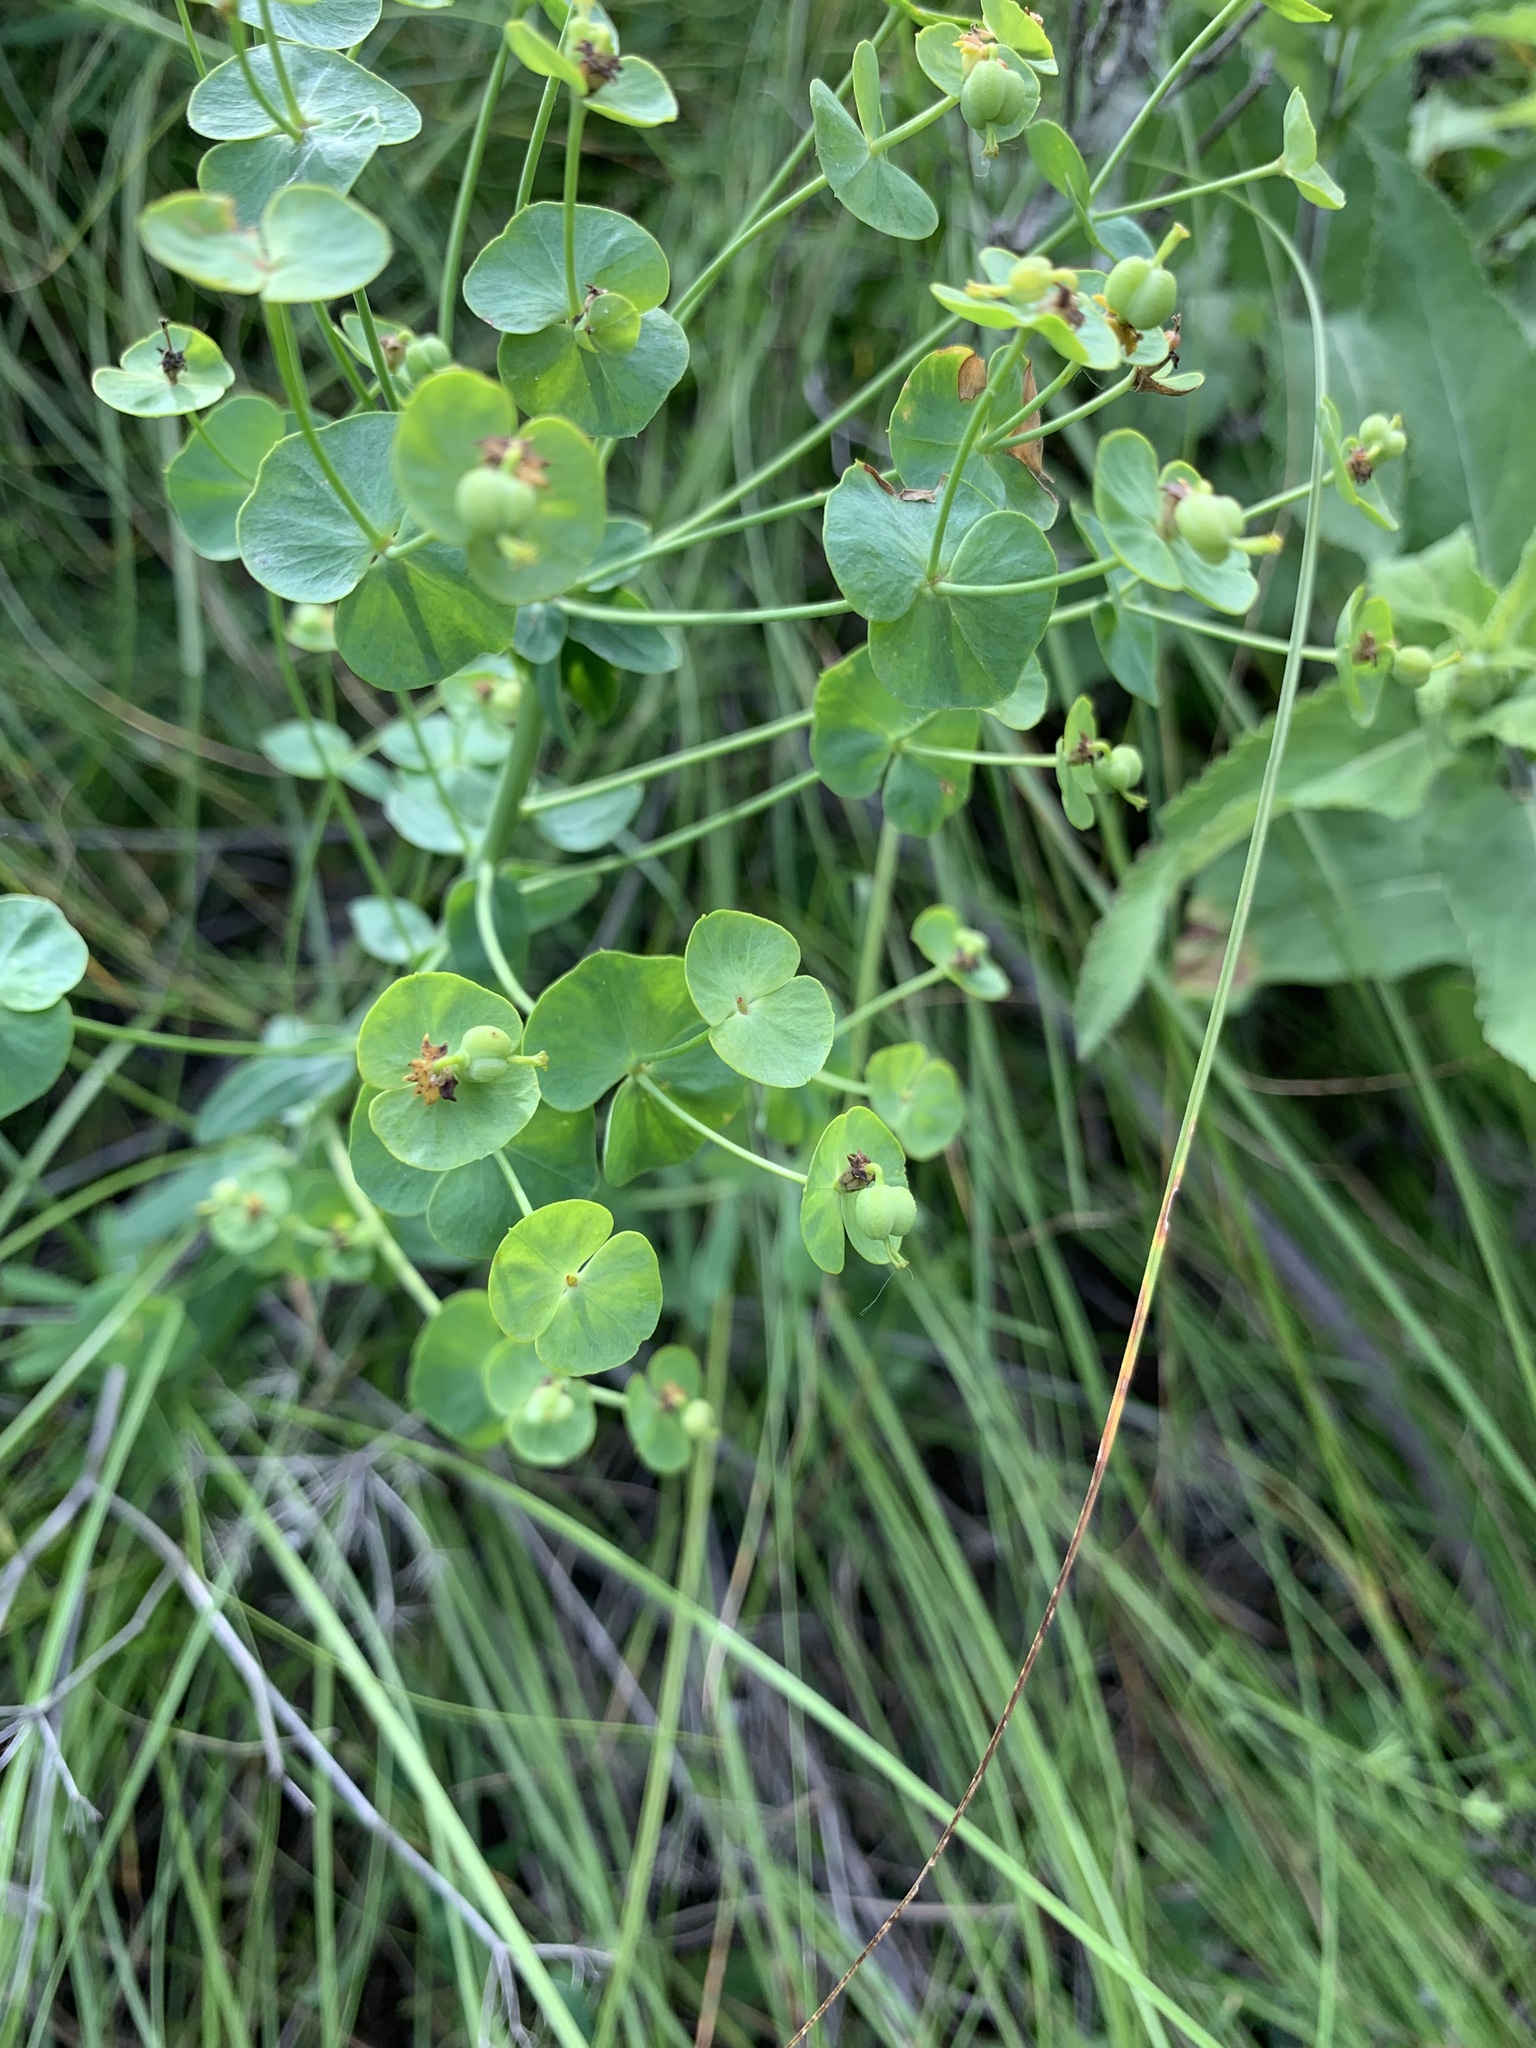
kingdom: Plantae
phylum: Tracheophyta
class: Magnoliopsida
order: Malpighiales
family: Euphorbiaceae
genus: Euphorbia
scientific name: Euphorbia caesia
